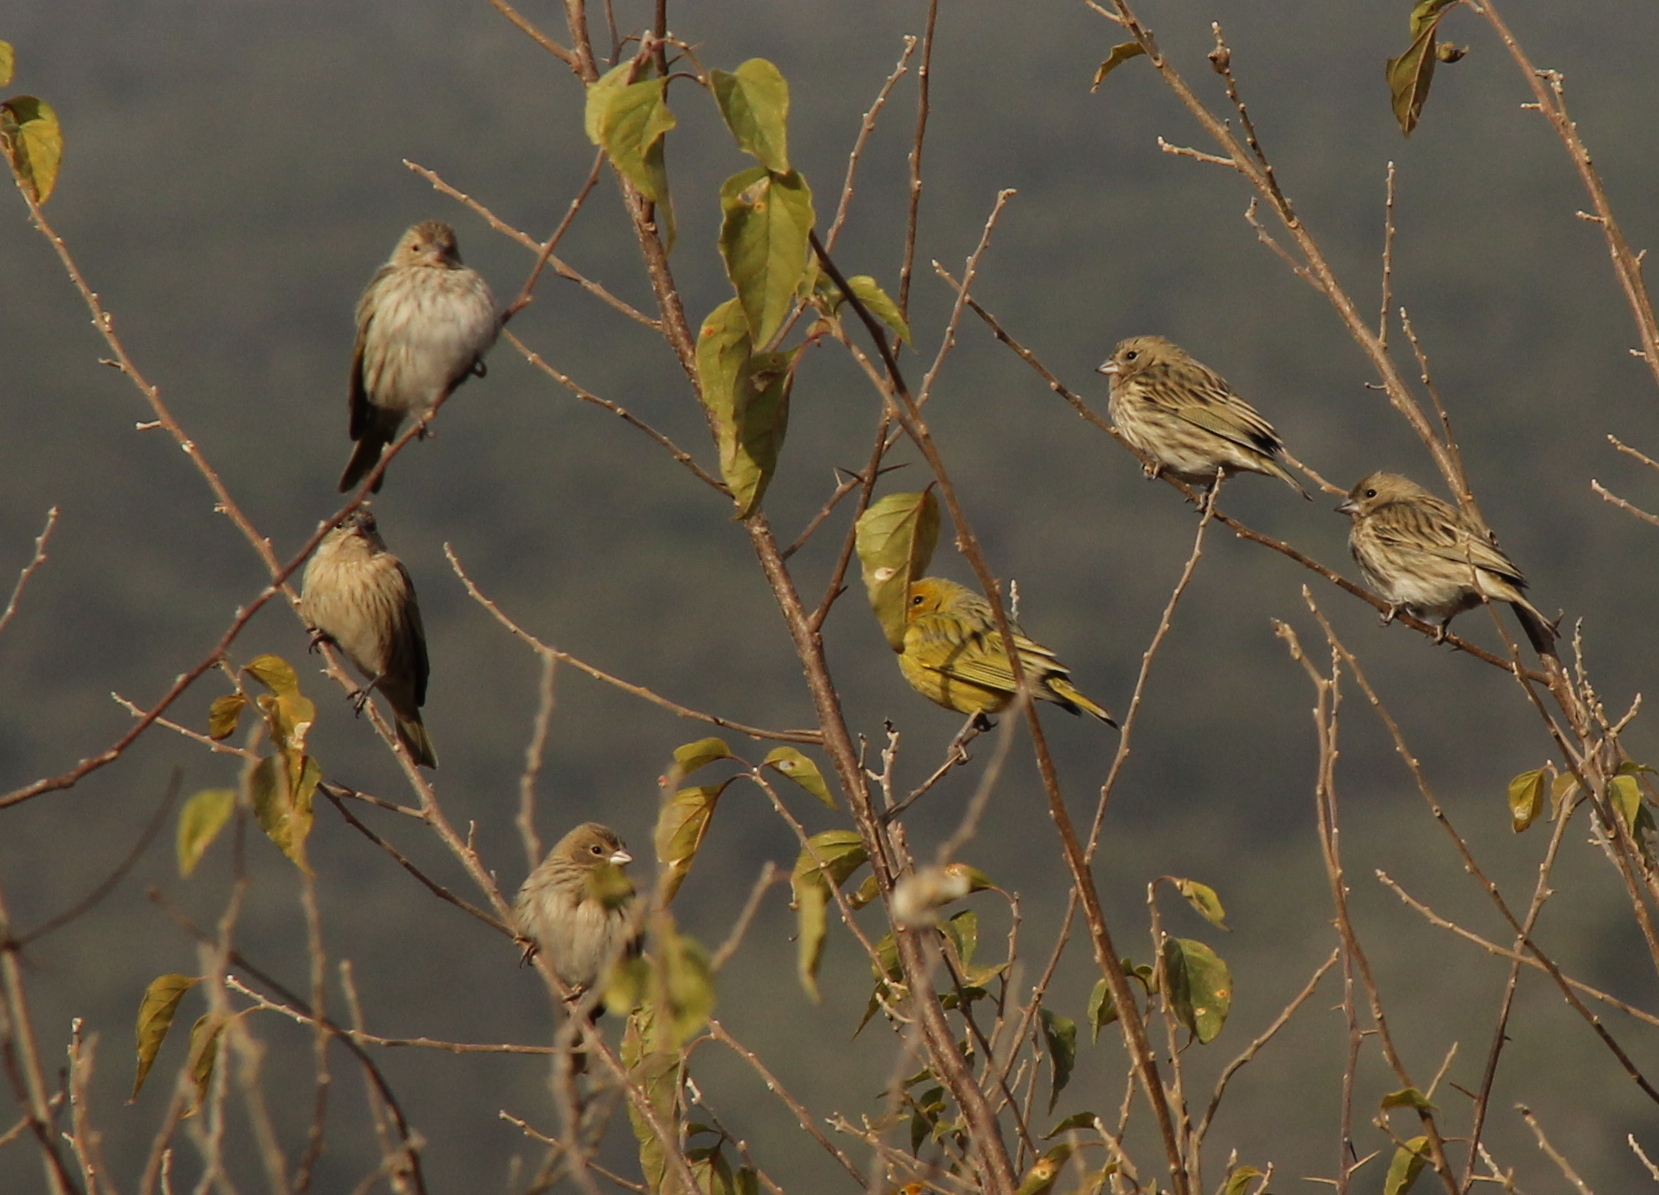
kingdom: Animalia
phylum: Chordata
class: Aves
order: Passeriformes
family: Thraupidae
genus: Sicalis
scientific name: Sicalis flaveola
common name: Saffron finch
